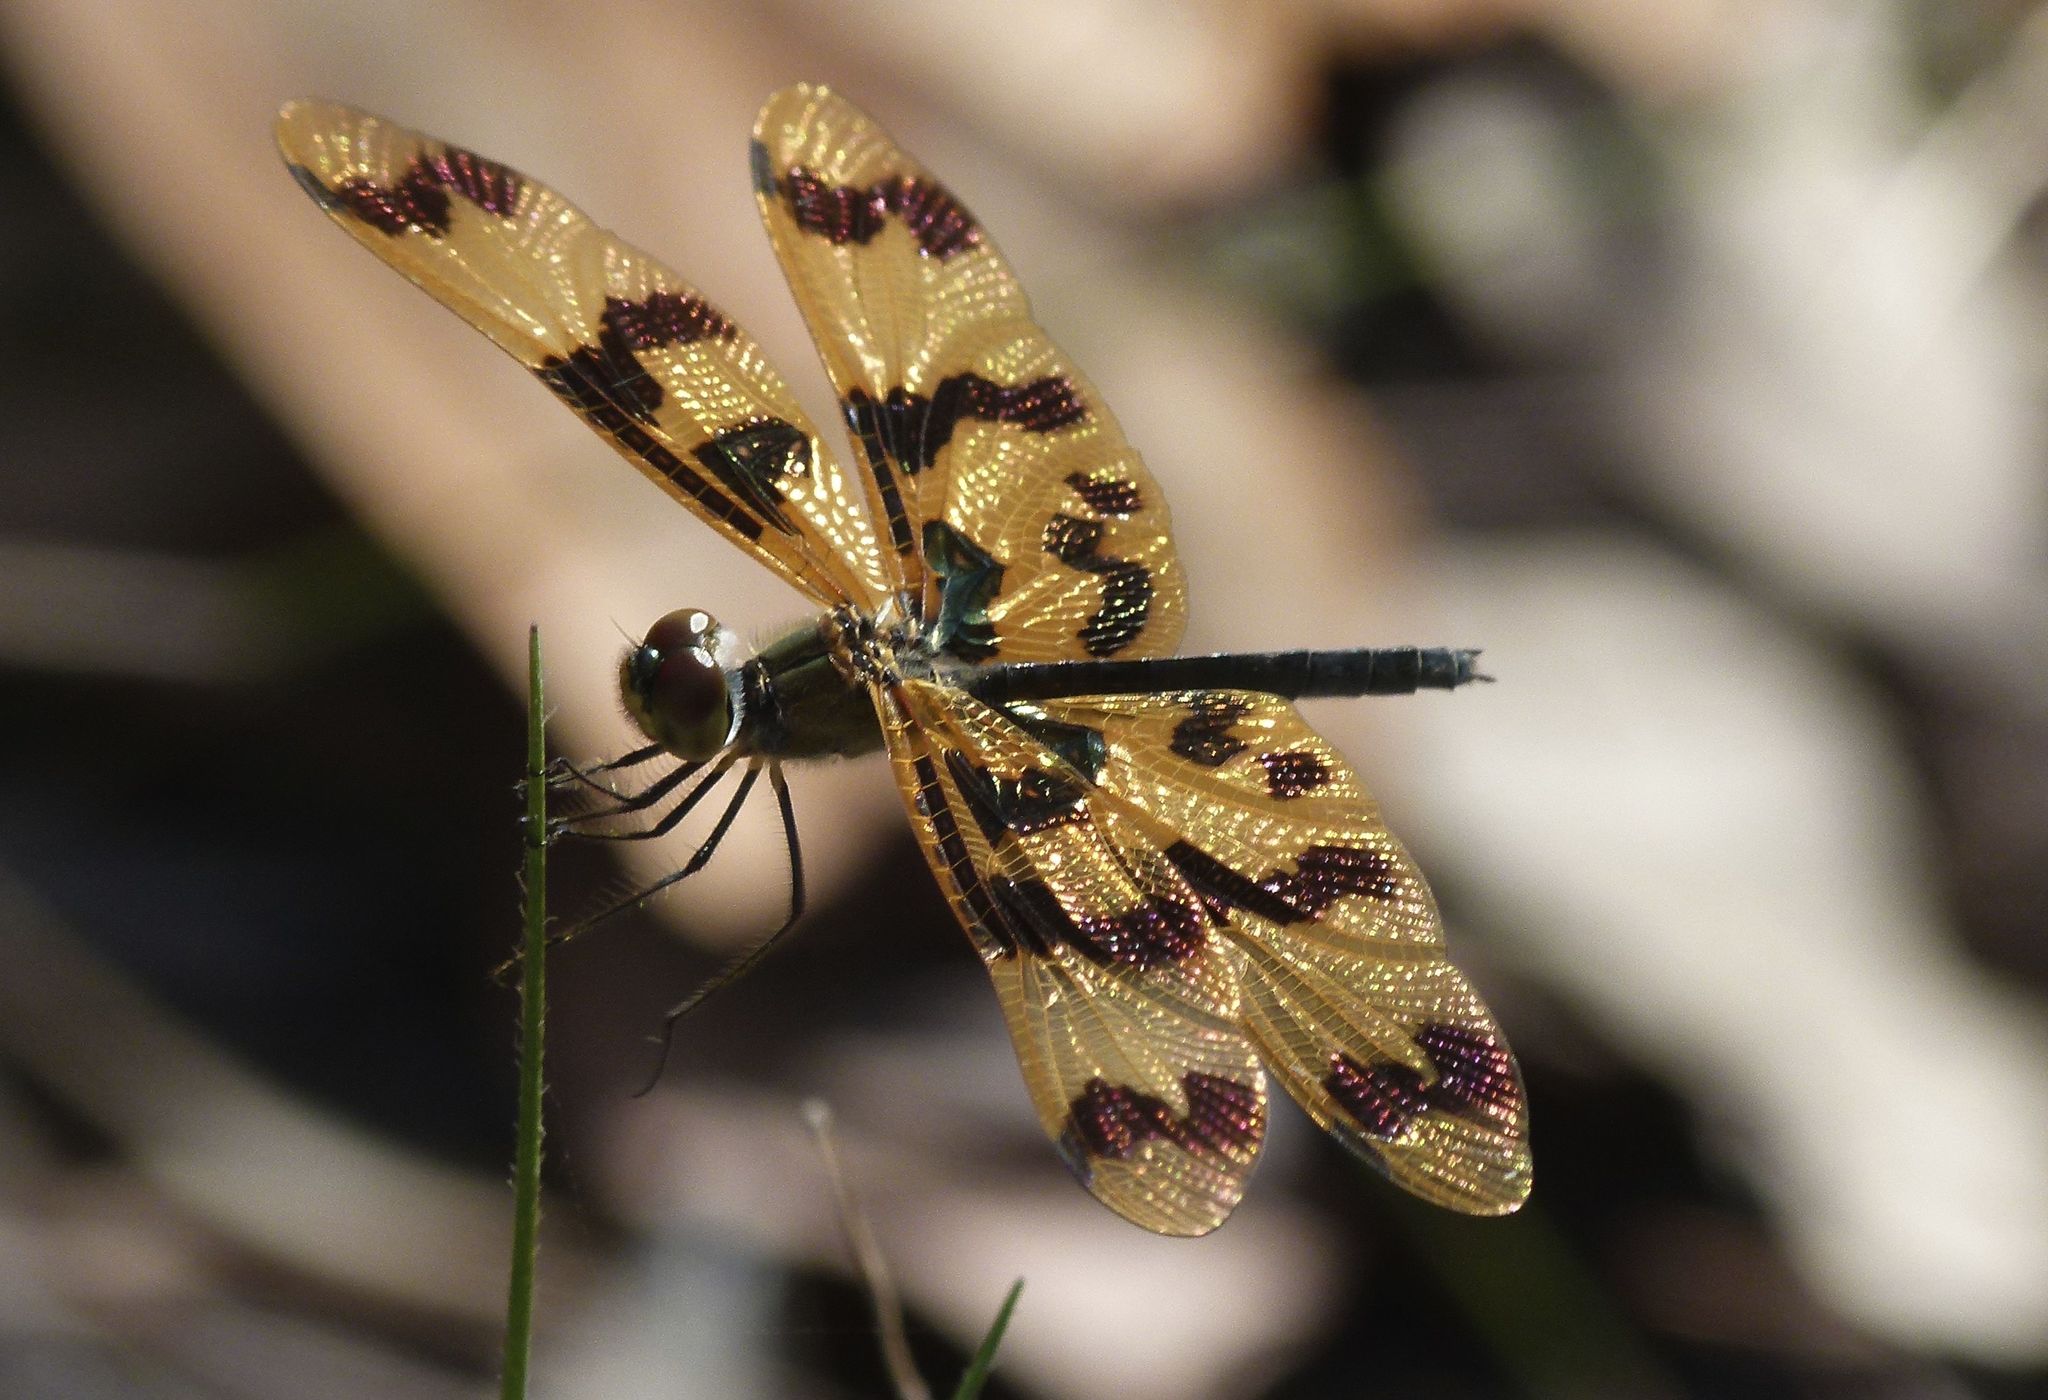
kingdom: Animalia
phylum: Arthropoda
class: Insecta
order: Odonata
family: Libellulidae
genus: Rhyothemis
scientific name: Rhyothemis graphiptera
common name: Graphic flutterer
